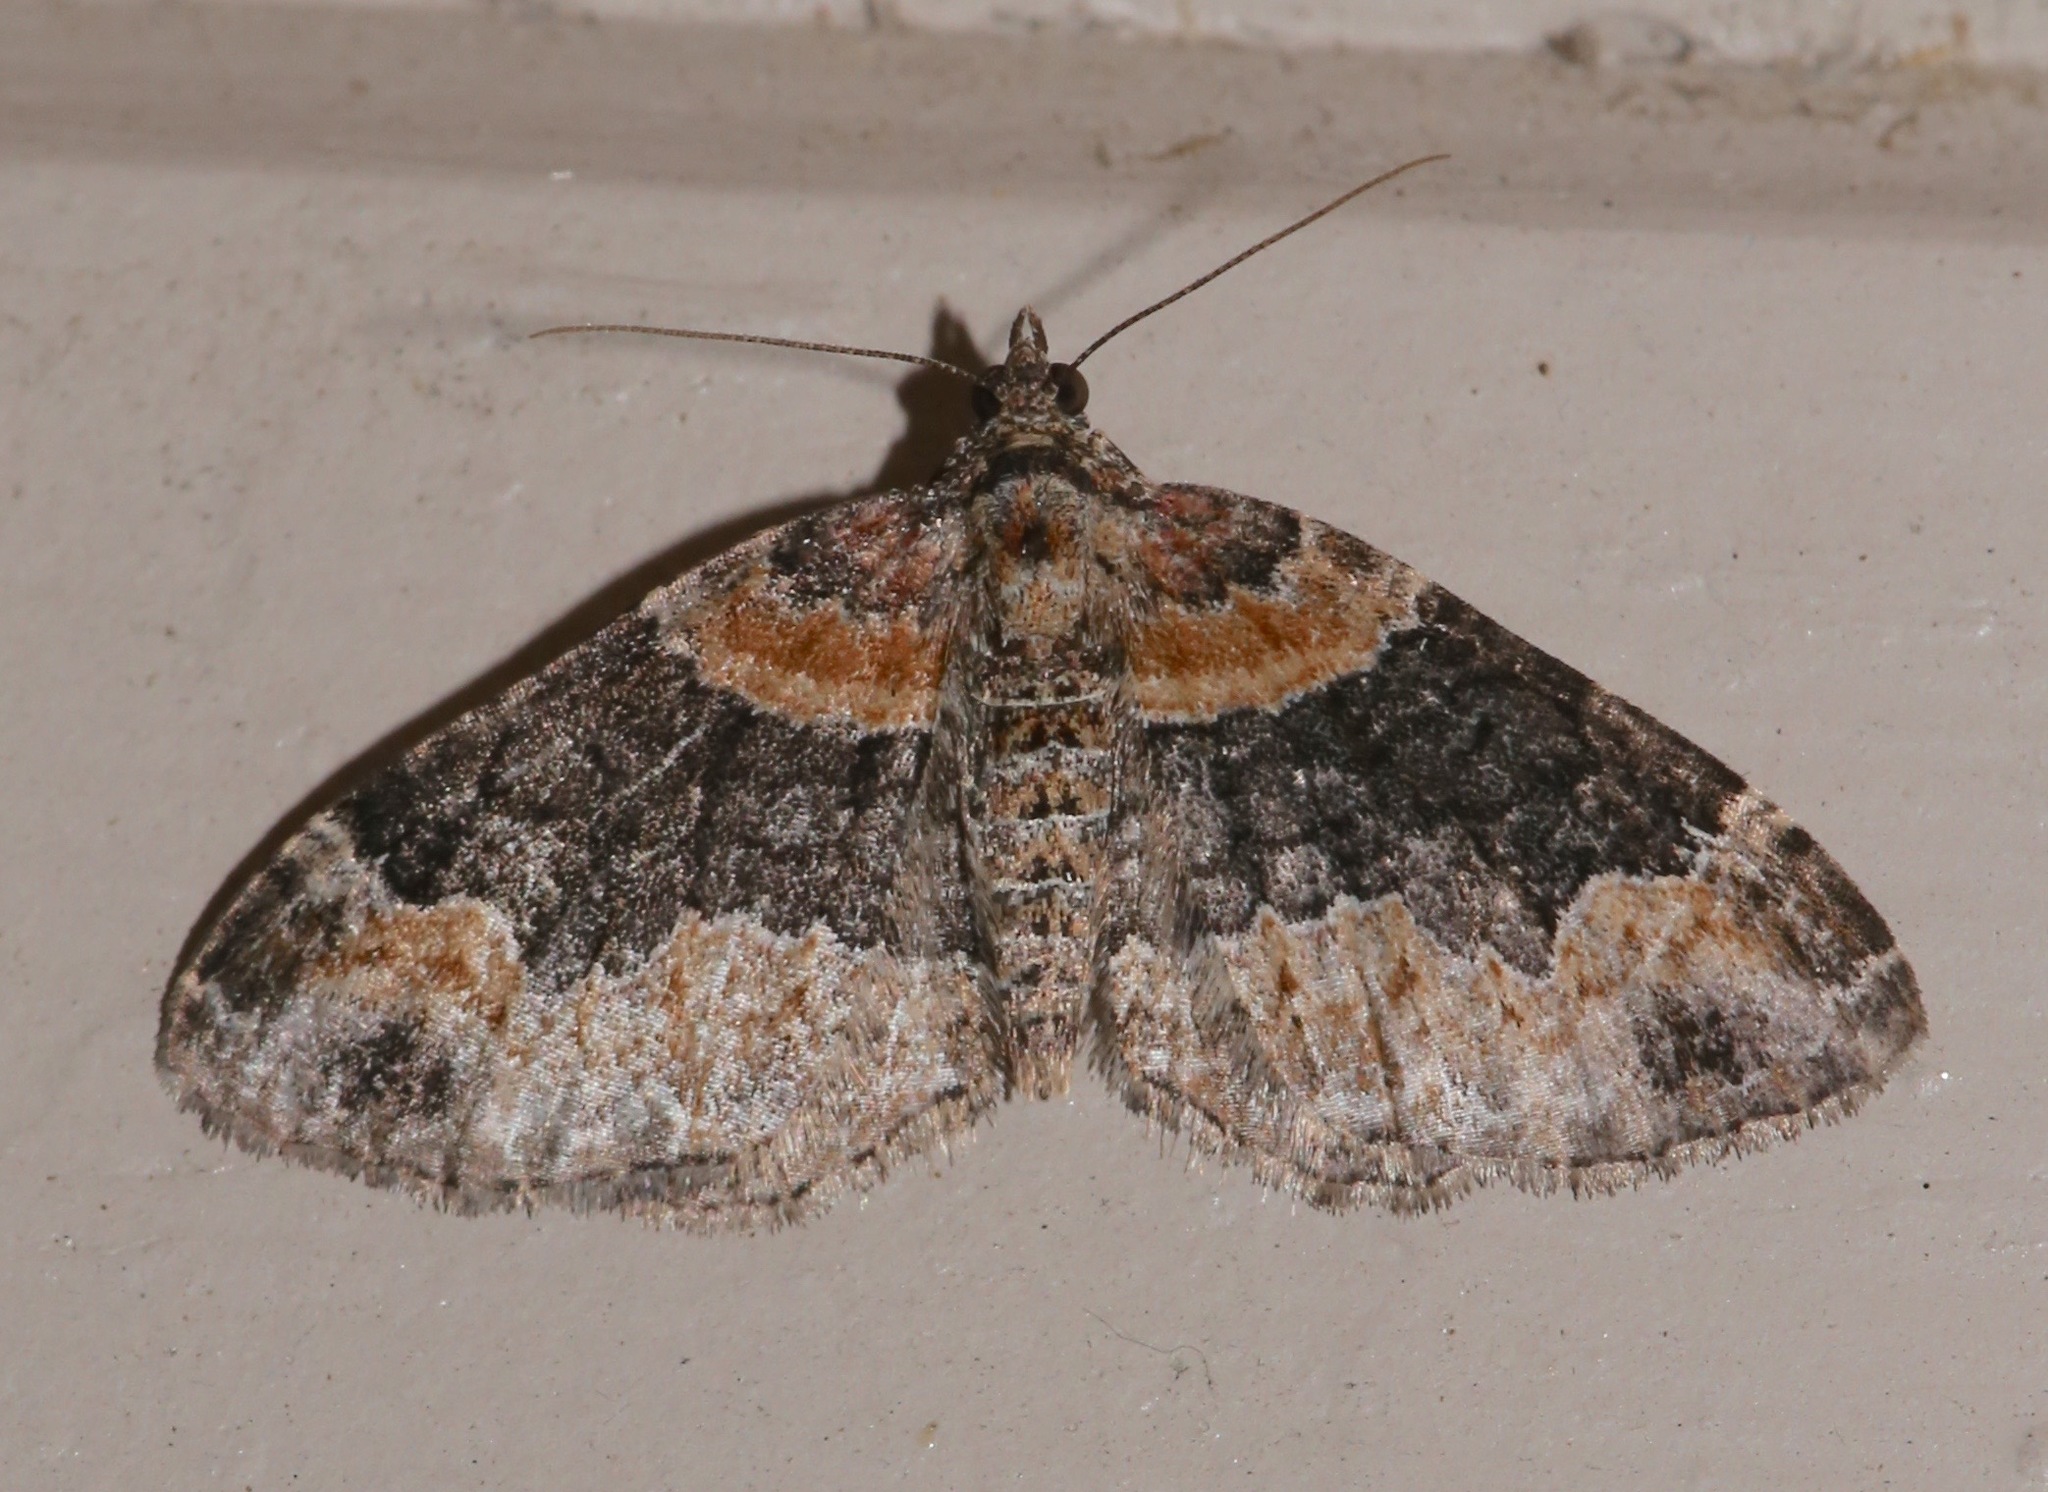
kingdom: Animalia
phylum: Arthropoda
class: Insecta
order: Lepidoptera
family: Geometridae
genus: Xanthorhoe
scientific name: Xanthorhoe ferrugata
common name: Dark-barred twin-spot carpet
